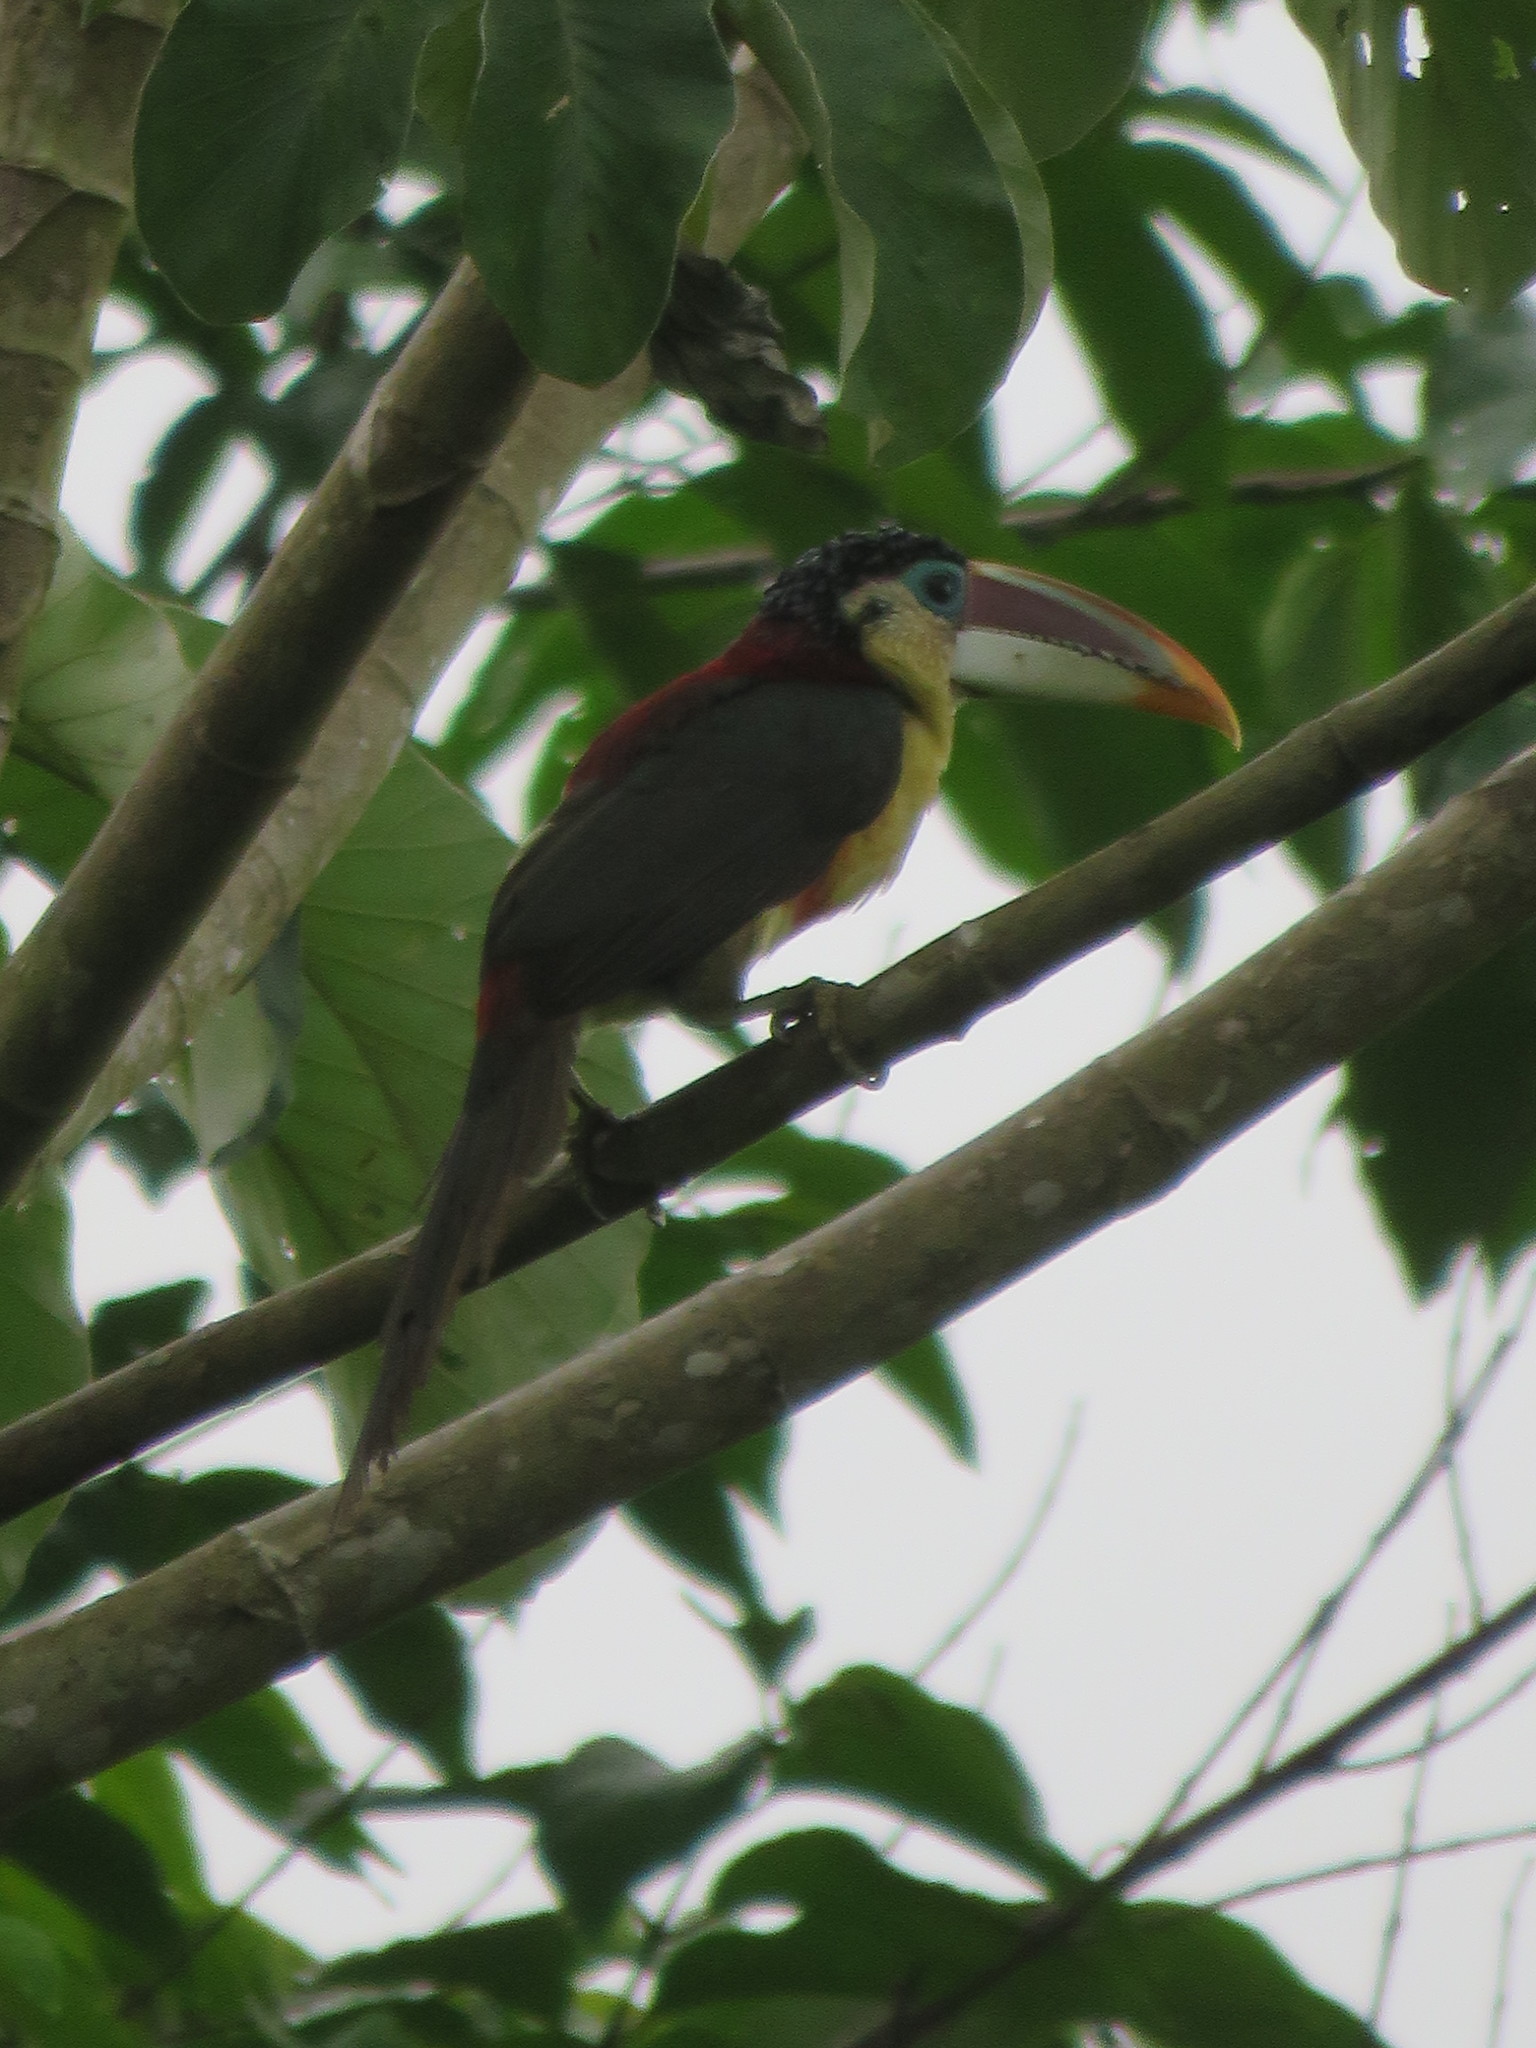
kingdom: Animalia
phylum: Chordata
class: Aves
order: Piciformes
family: Ramphastidae
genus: Pteroglossus
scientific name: Pteroglossus beauharnaisii
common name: Curl-crested aracari
